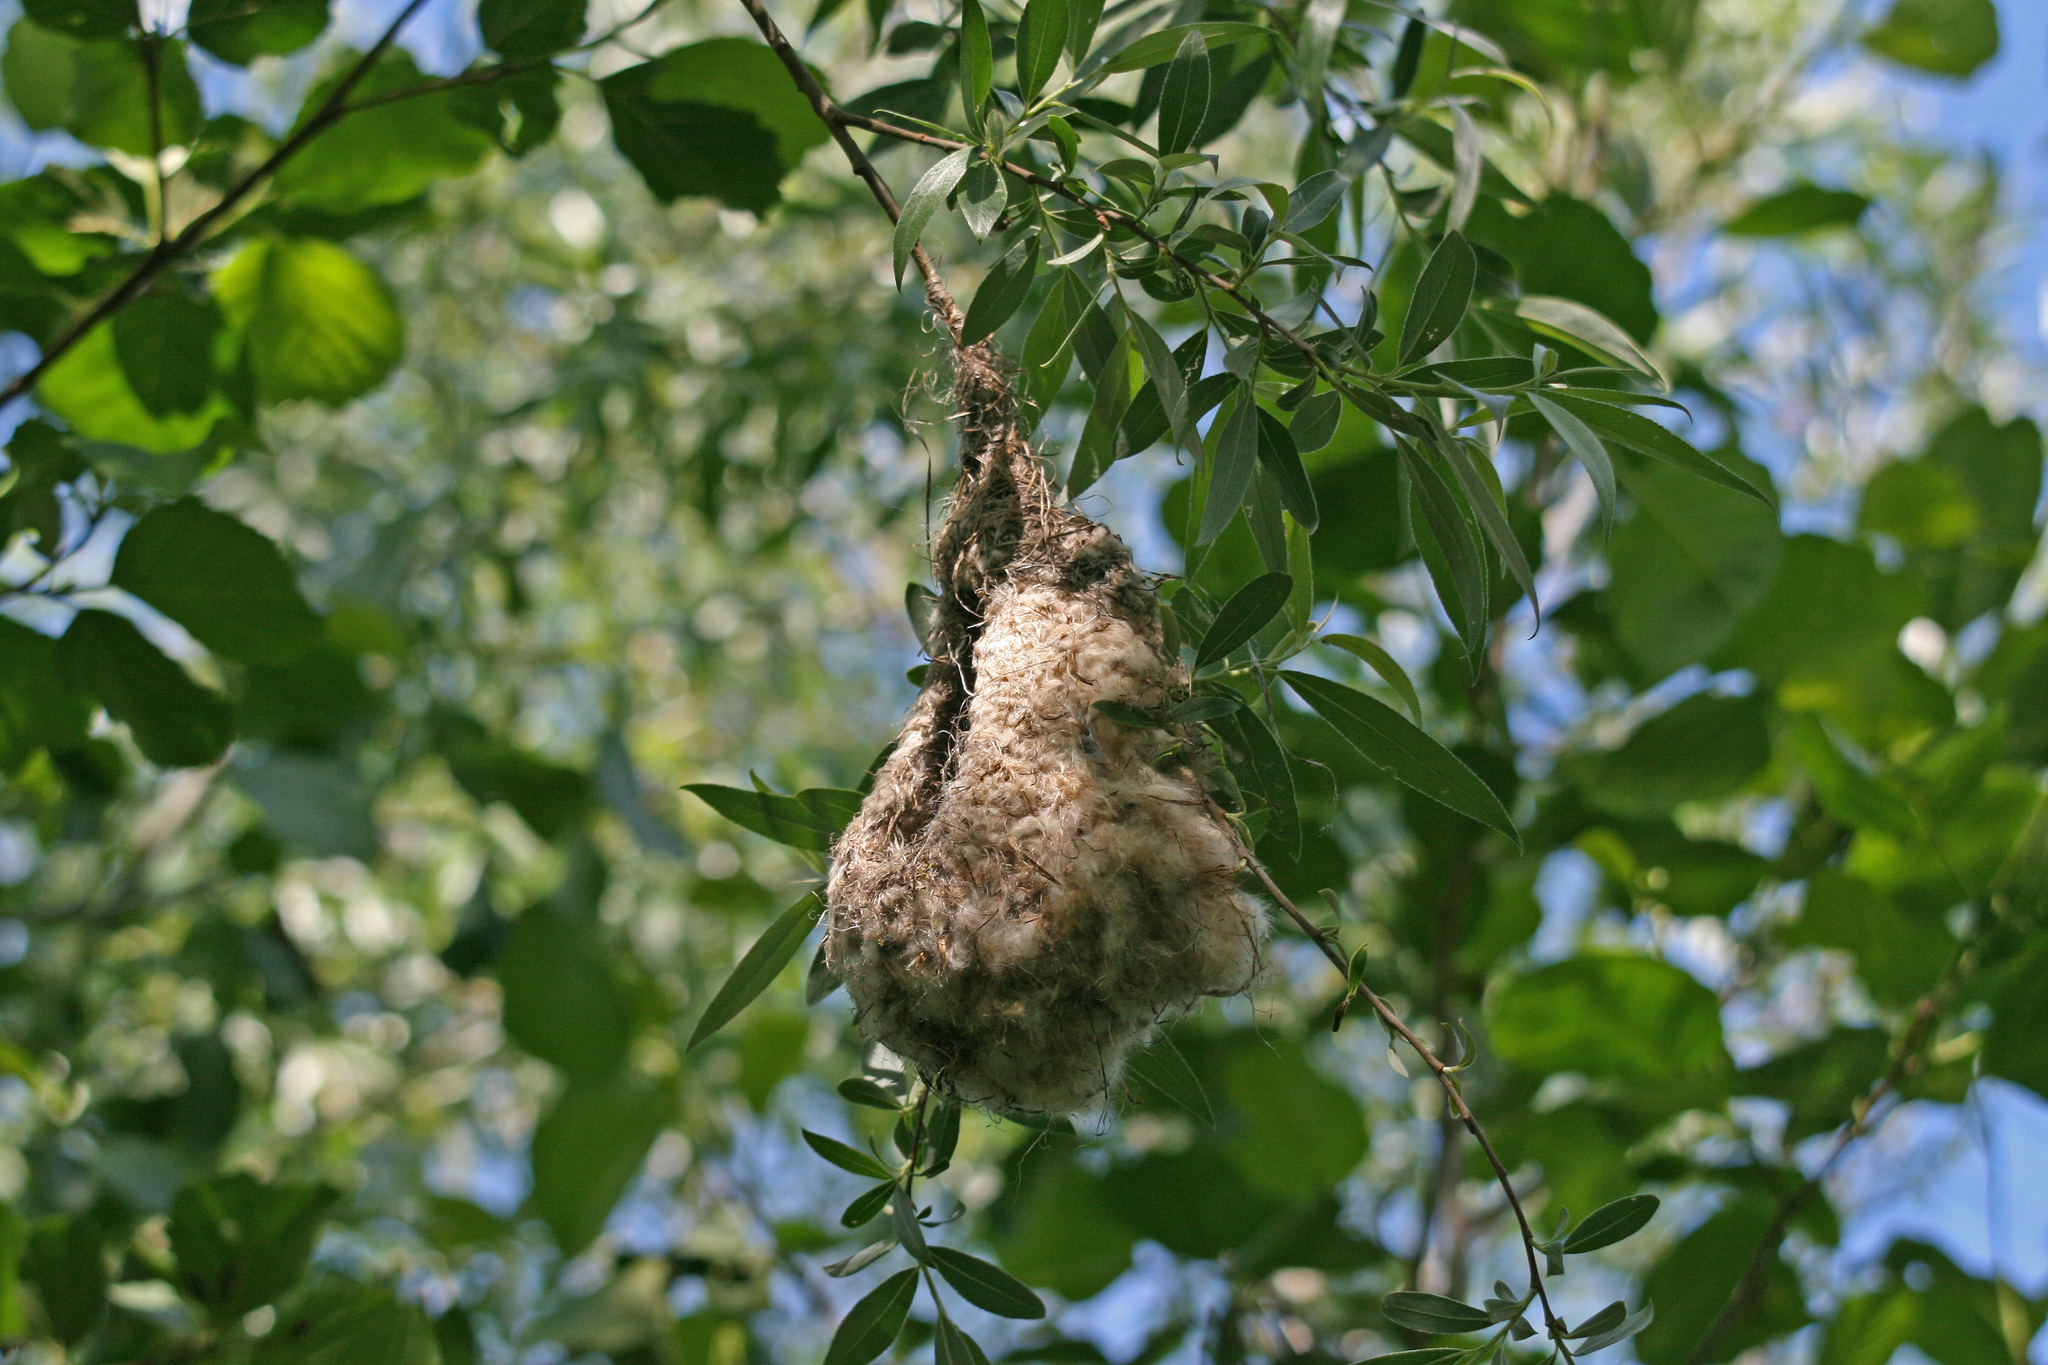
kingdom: Animalia
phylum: Chordata
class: Aves
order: Passeriformes
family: Remizidae
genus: Remiz
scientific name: Remiz pendulinus
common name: Eurasian penduline tit
